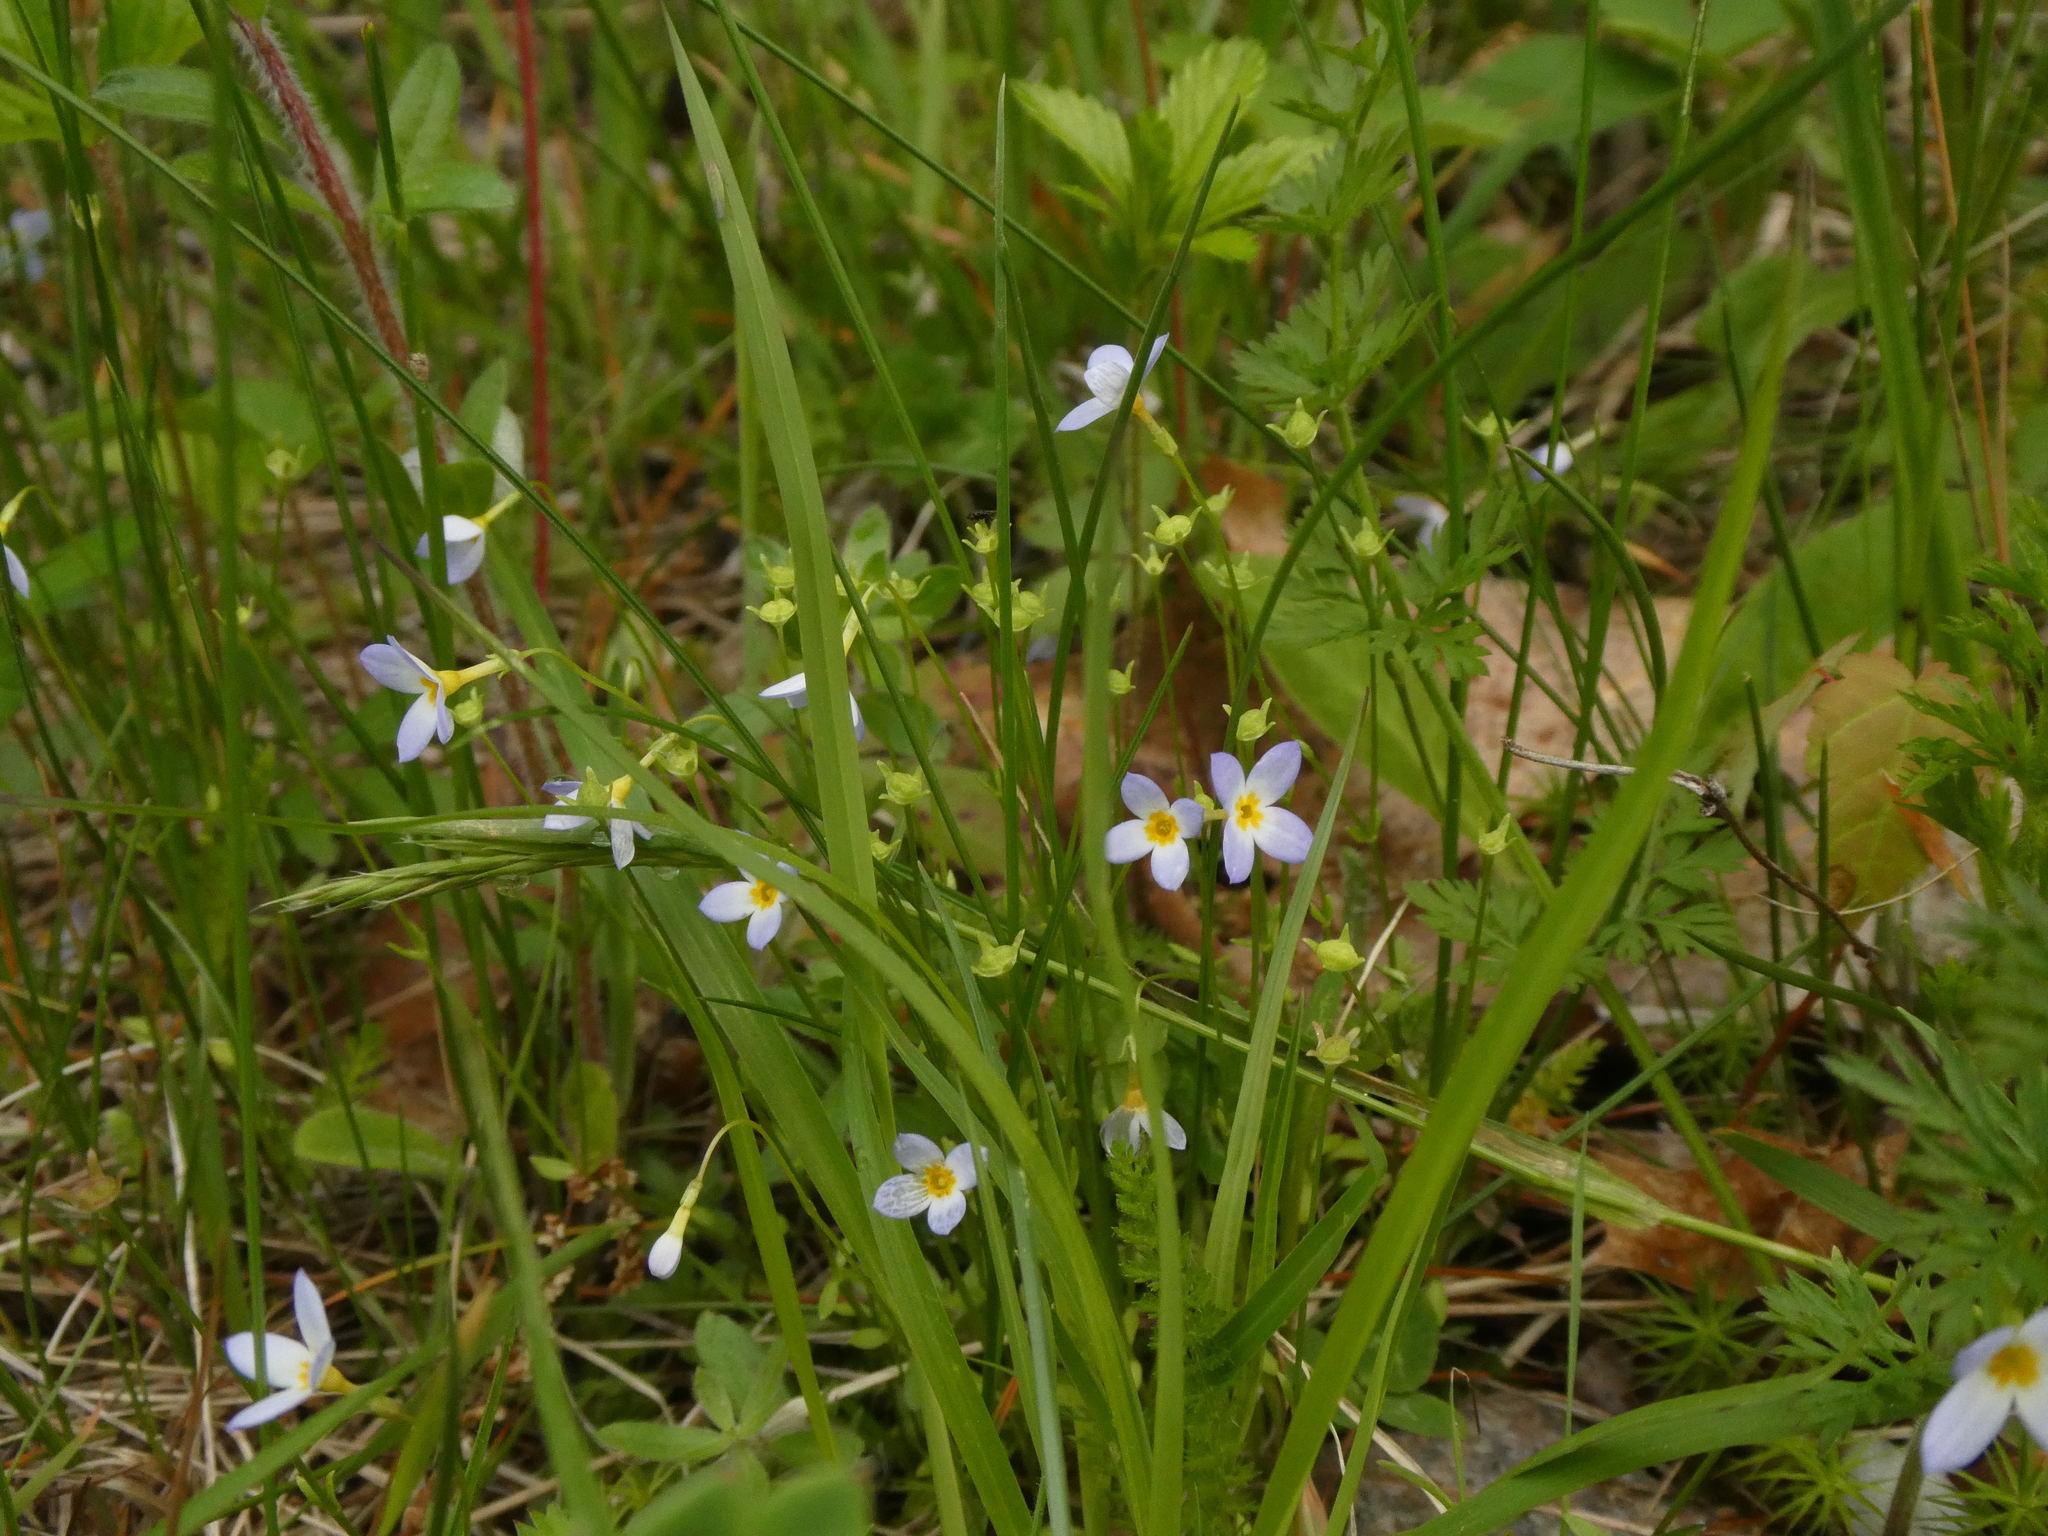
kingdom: Plantae
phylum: Tracheophyta
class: Magnoliopsida
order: Gentianales
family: Rubiaceae
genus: Houstonia
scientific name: Houstonia caerulea
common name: Bluets
